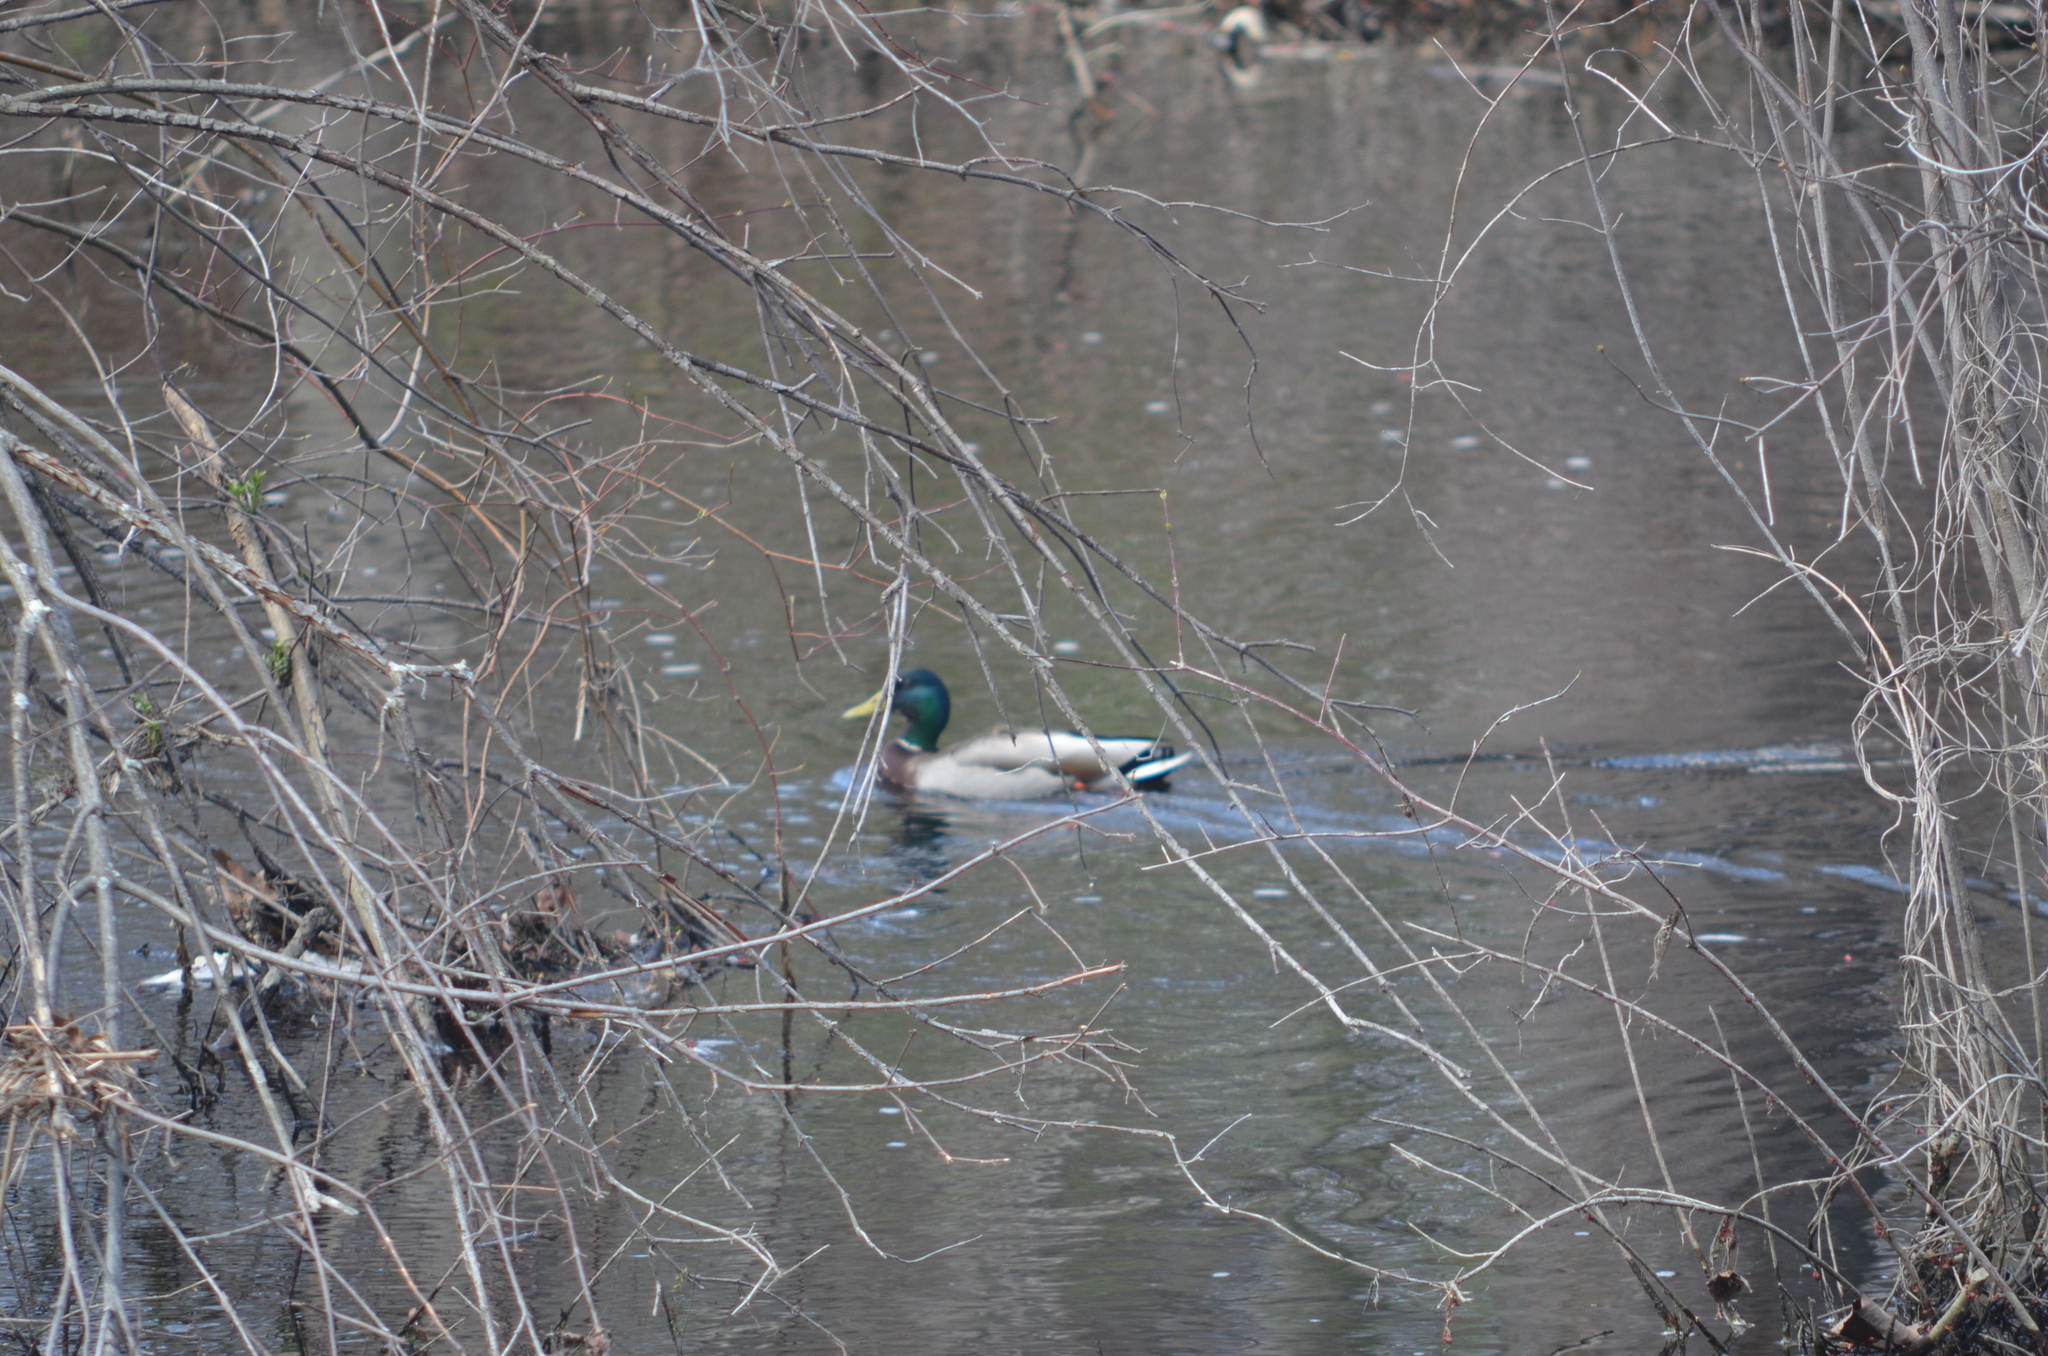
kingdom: Animalia
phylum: Chordata
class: Aves
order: Anseriformes
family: Anatidae
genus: Anas
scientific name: Anas platyrhynchos
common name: Mallard
